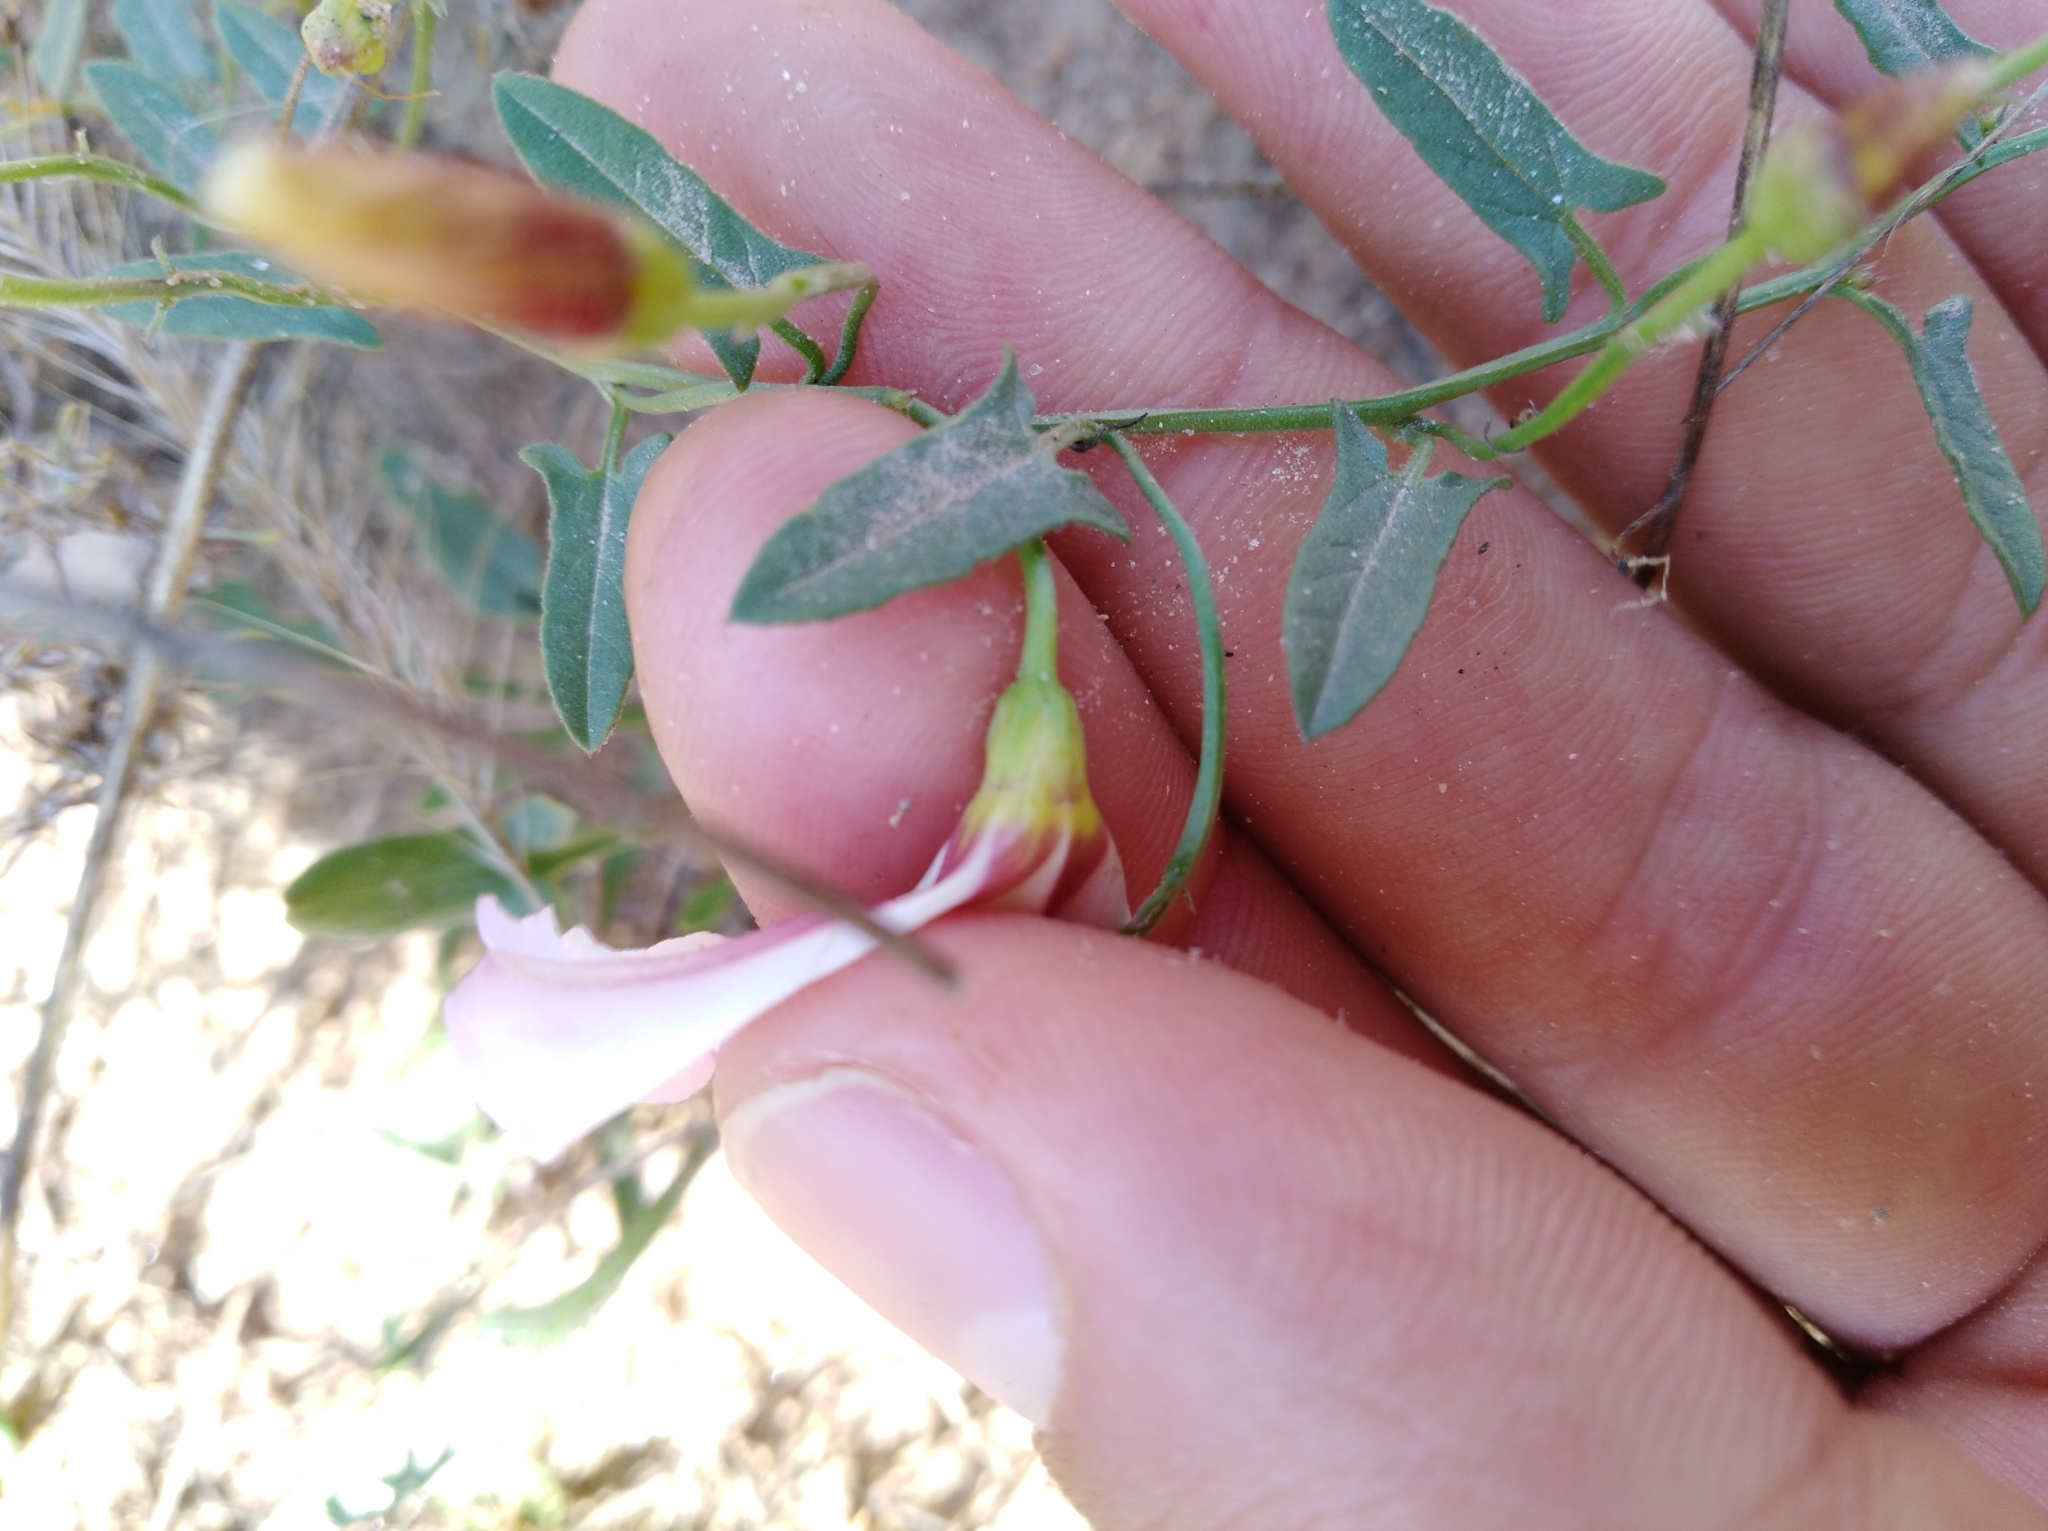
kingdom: Plantae
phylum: Tracheophyta
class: Magnoliopsida
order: Solanales
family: Convolvulaceae
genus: Convolvulus
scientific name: Convolvulus arvensis
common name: Field bindweed
